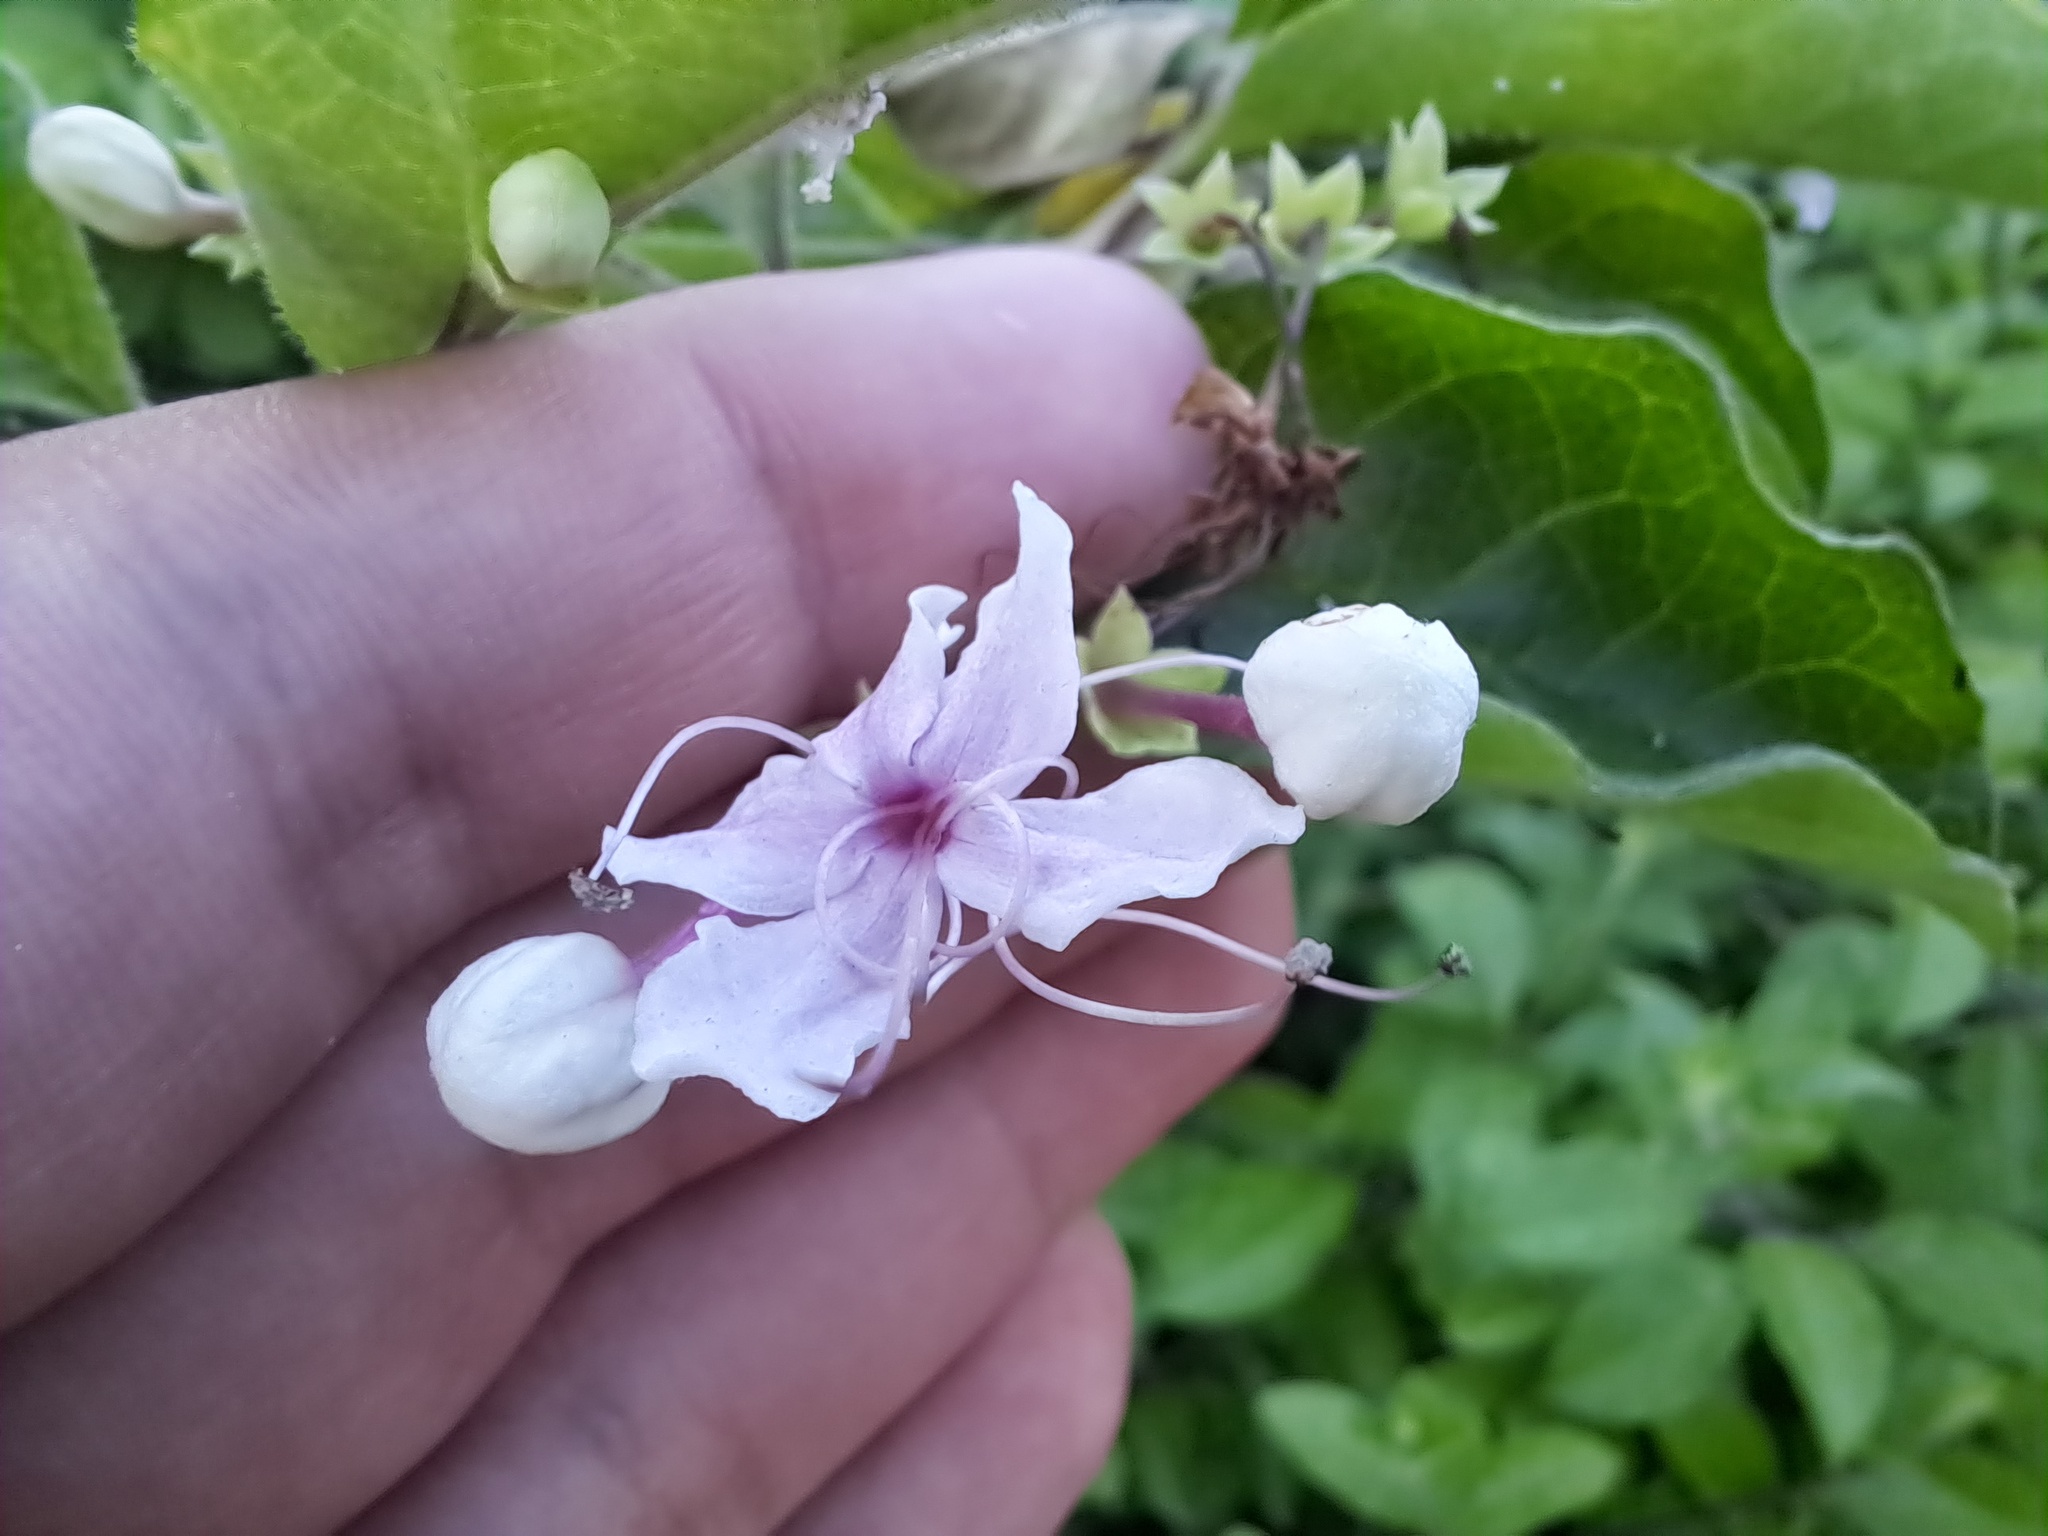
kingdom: Plantae
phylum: Tracheophyta
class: Magnoliopsida
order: Lamiales
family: Lamiaceae
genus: Volkameria
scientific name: Volkameria mollis
